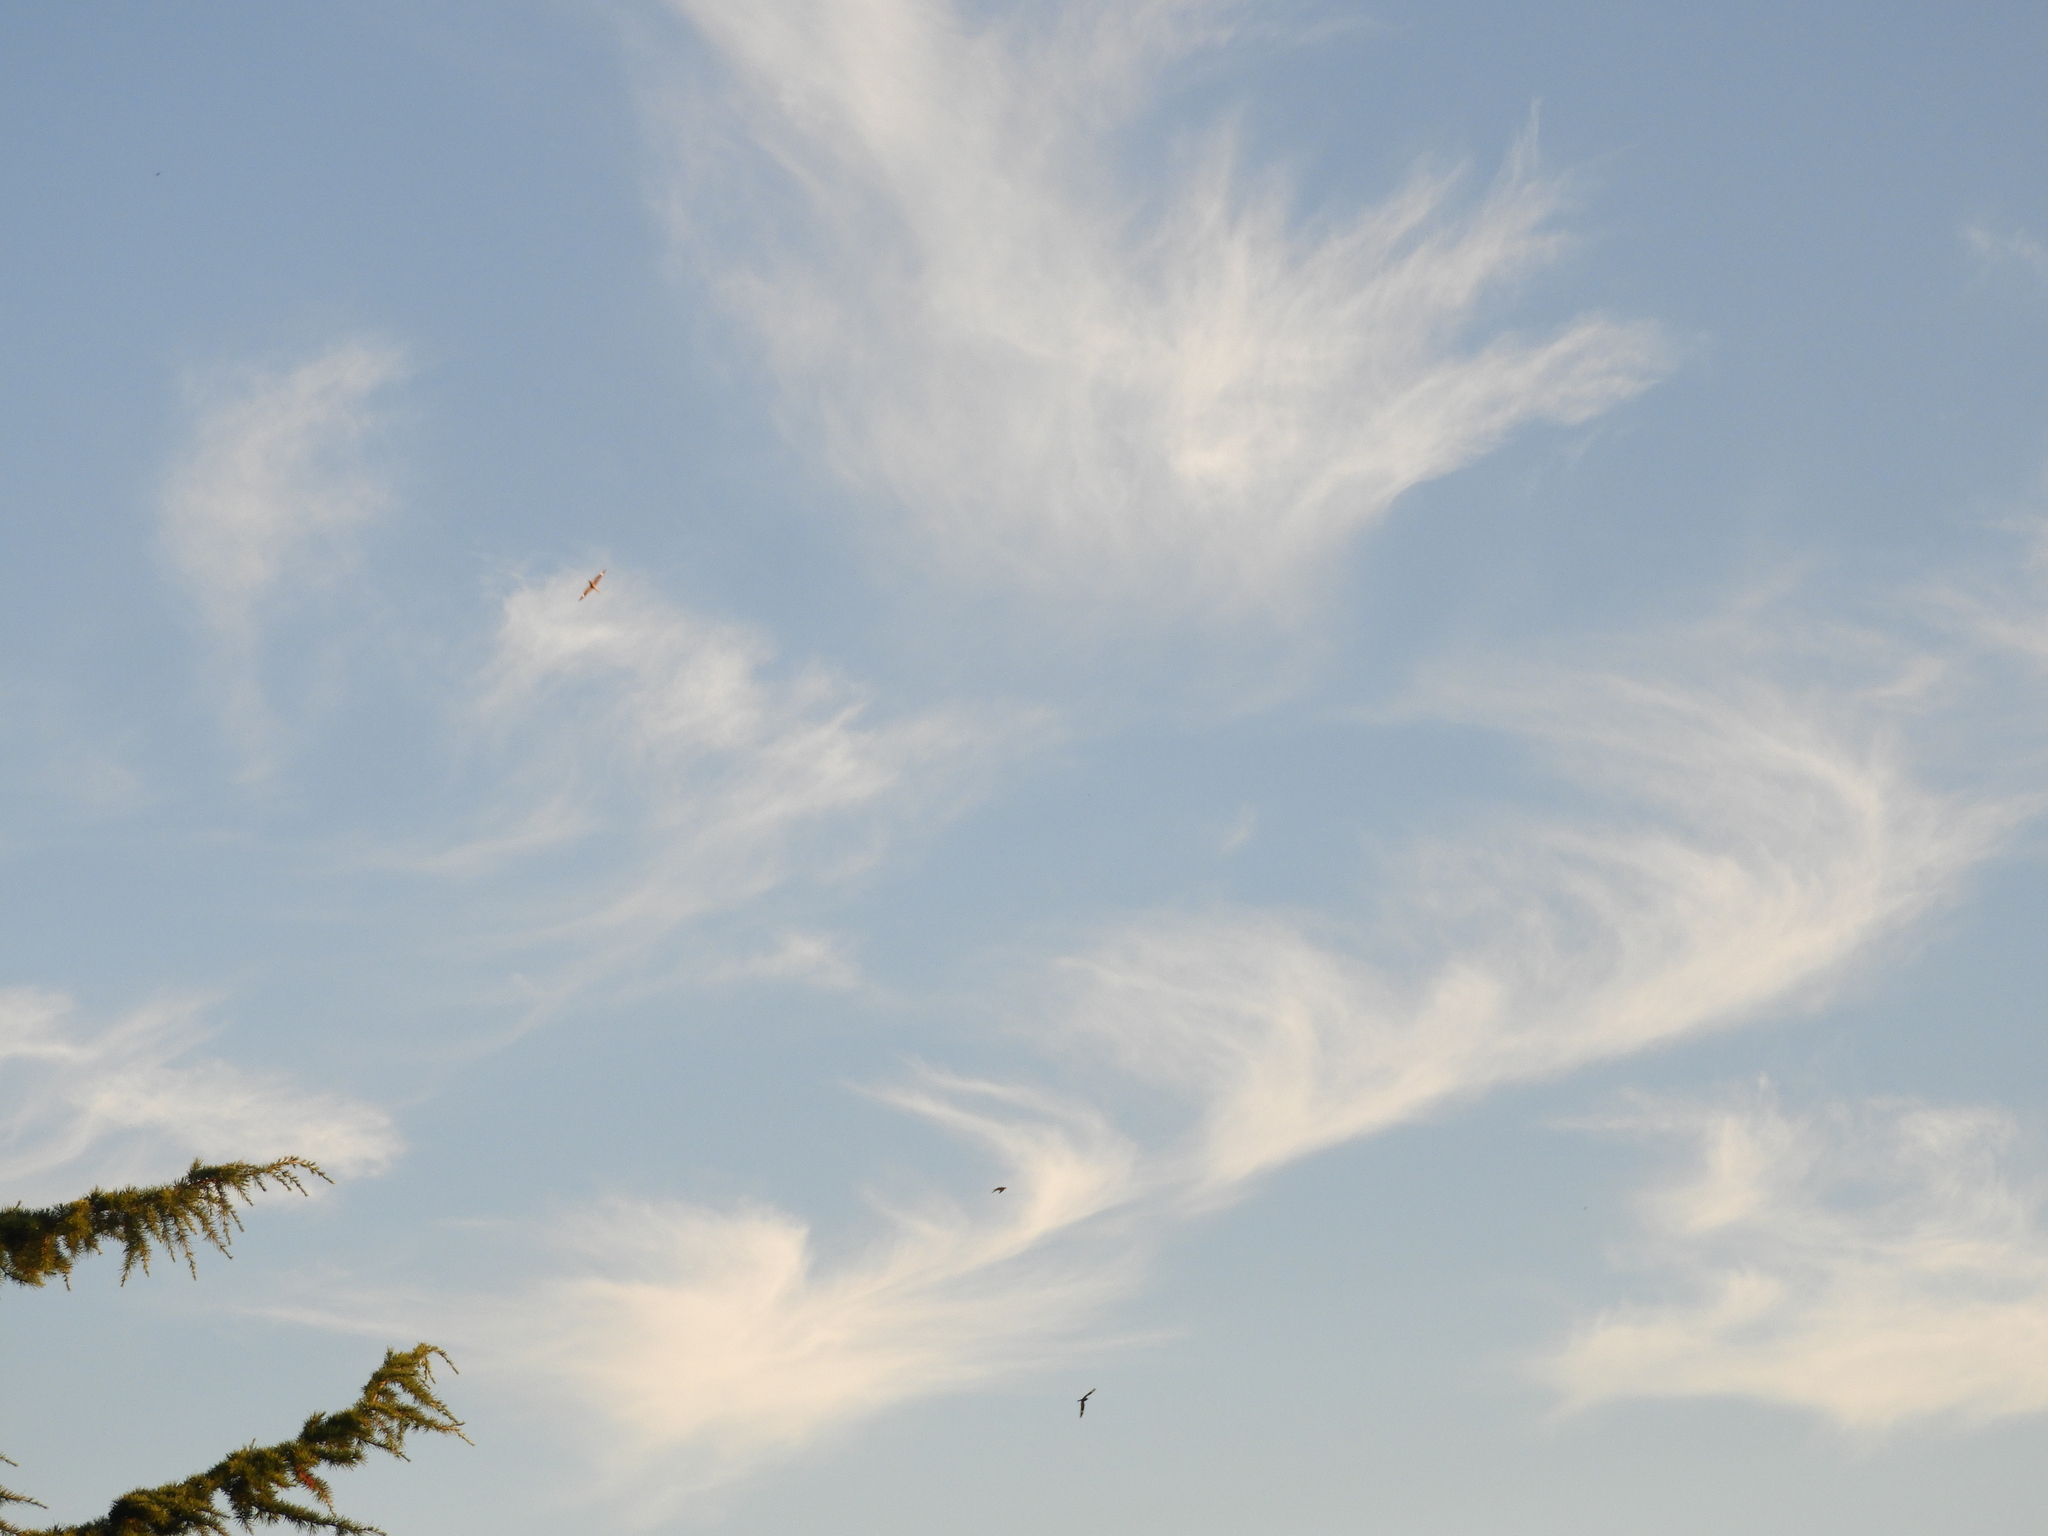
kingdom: Animalia
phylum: Chordata
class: Aves
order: Caprimulgiformes
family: Caprimulgidae
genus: Chordeiles
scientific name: Chordeiles minor
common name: Common nighthawk
